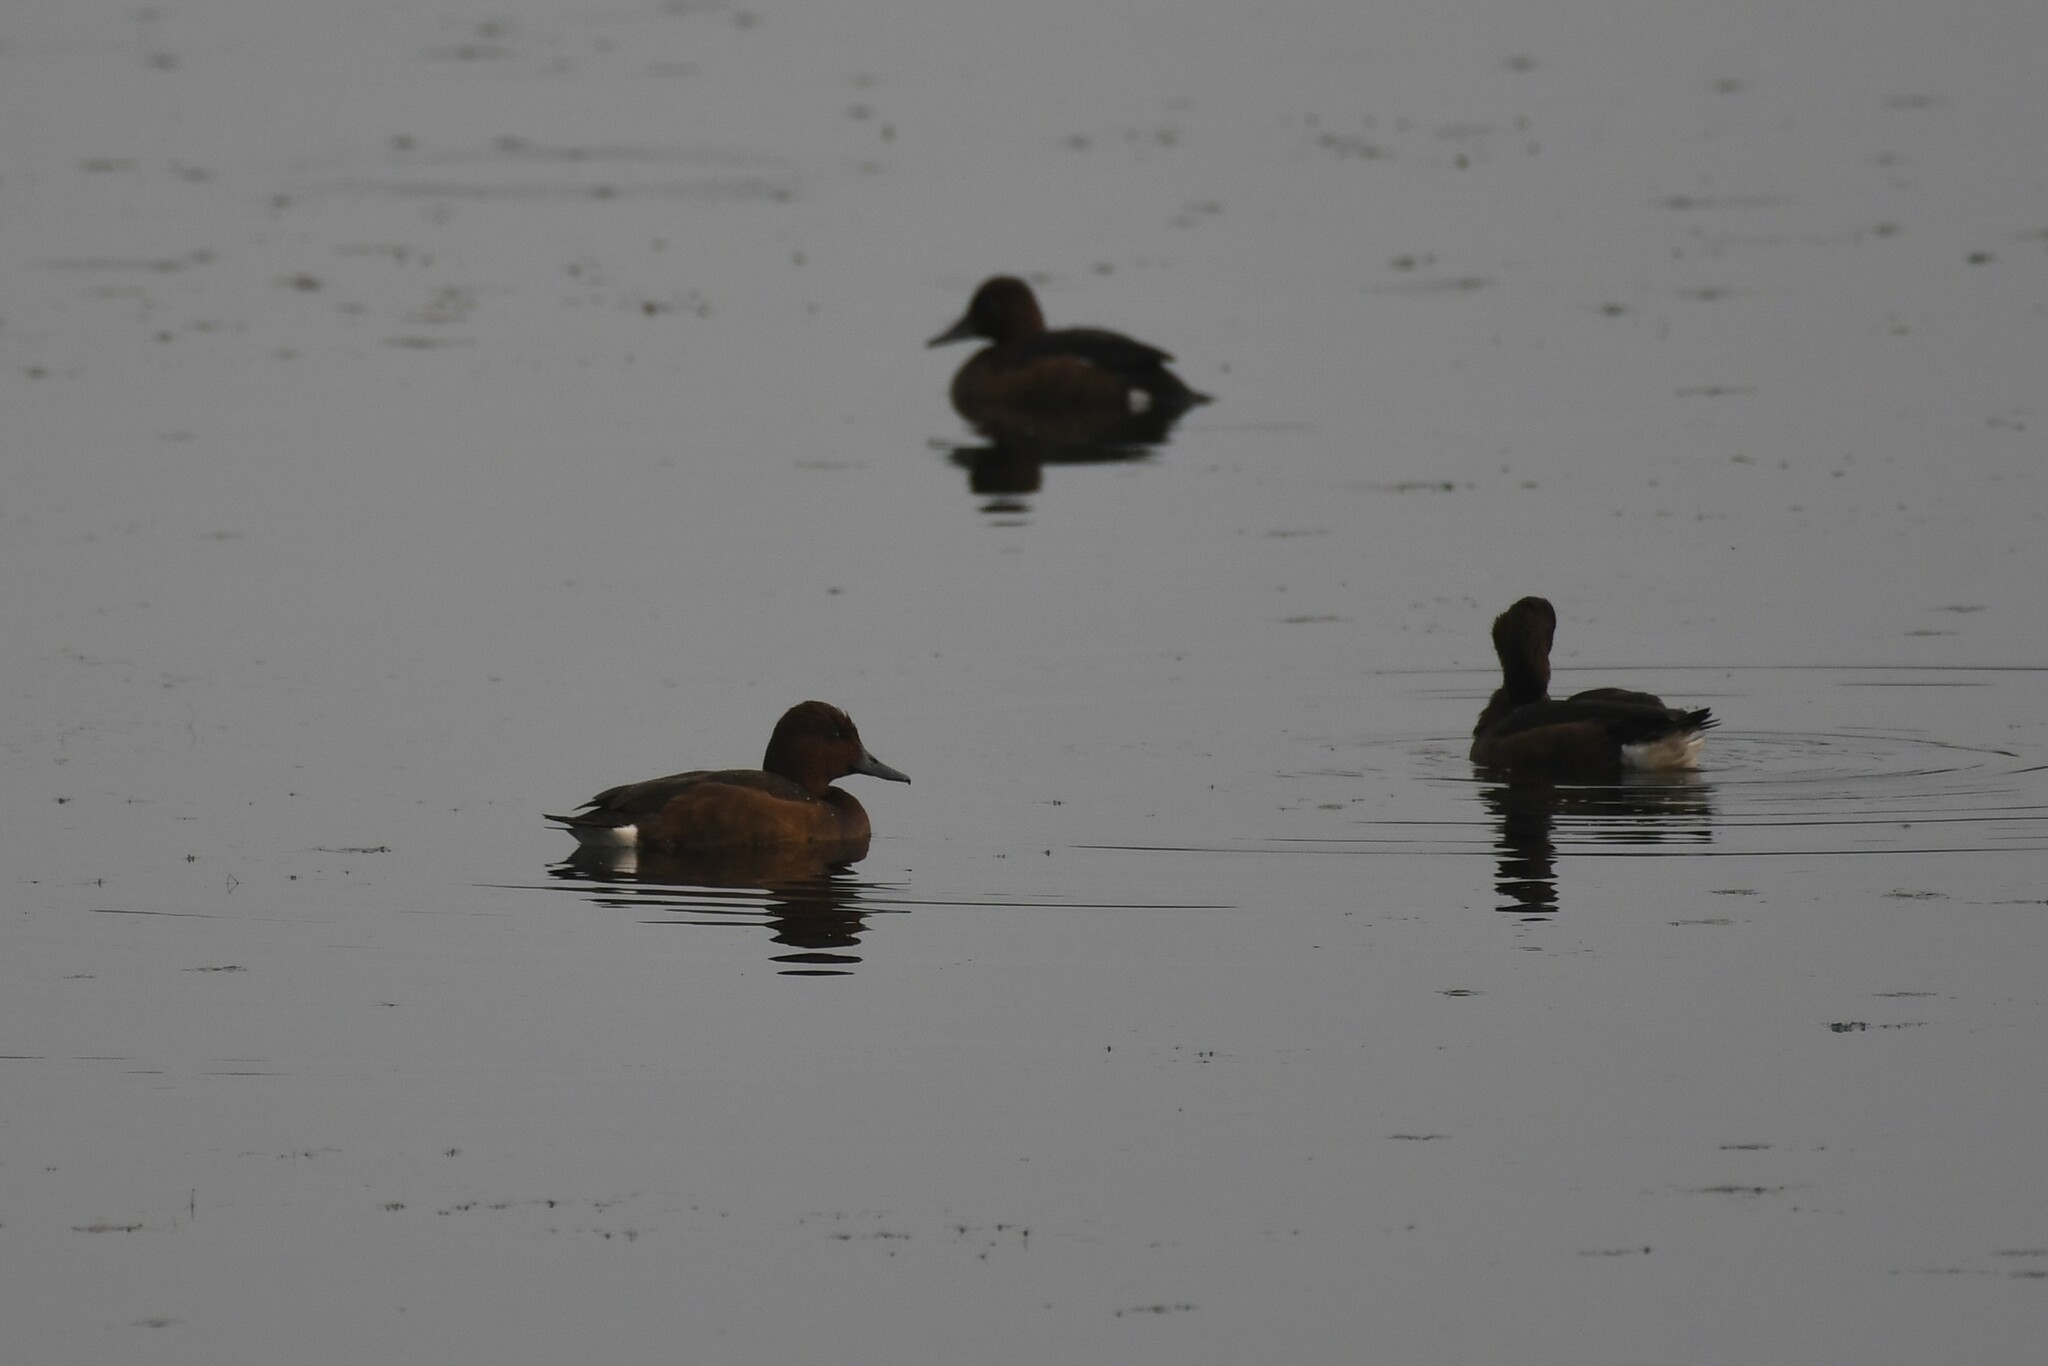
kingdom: Animalia
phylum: Chordata
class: Aves
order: Anseriformes
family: Anatidae
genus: Aythya
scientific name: Aythya nyroca
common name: Ferruginous duck
